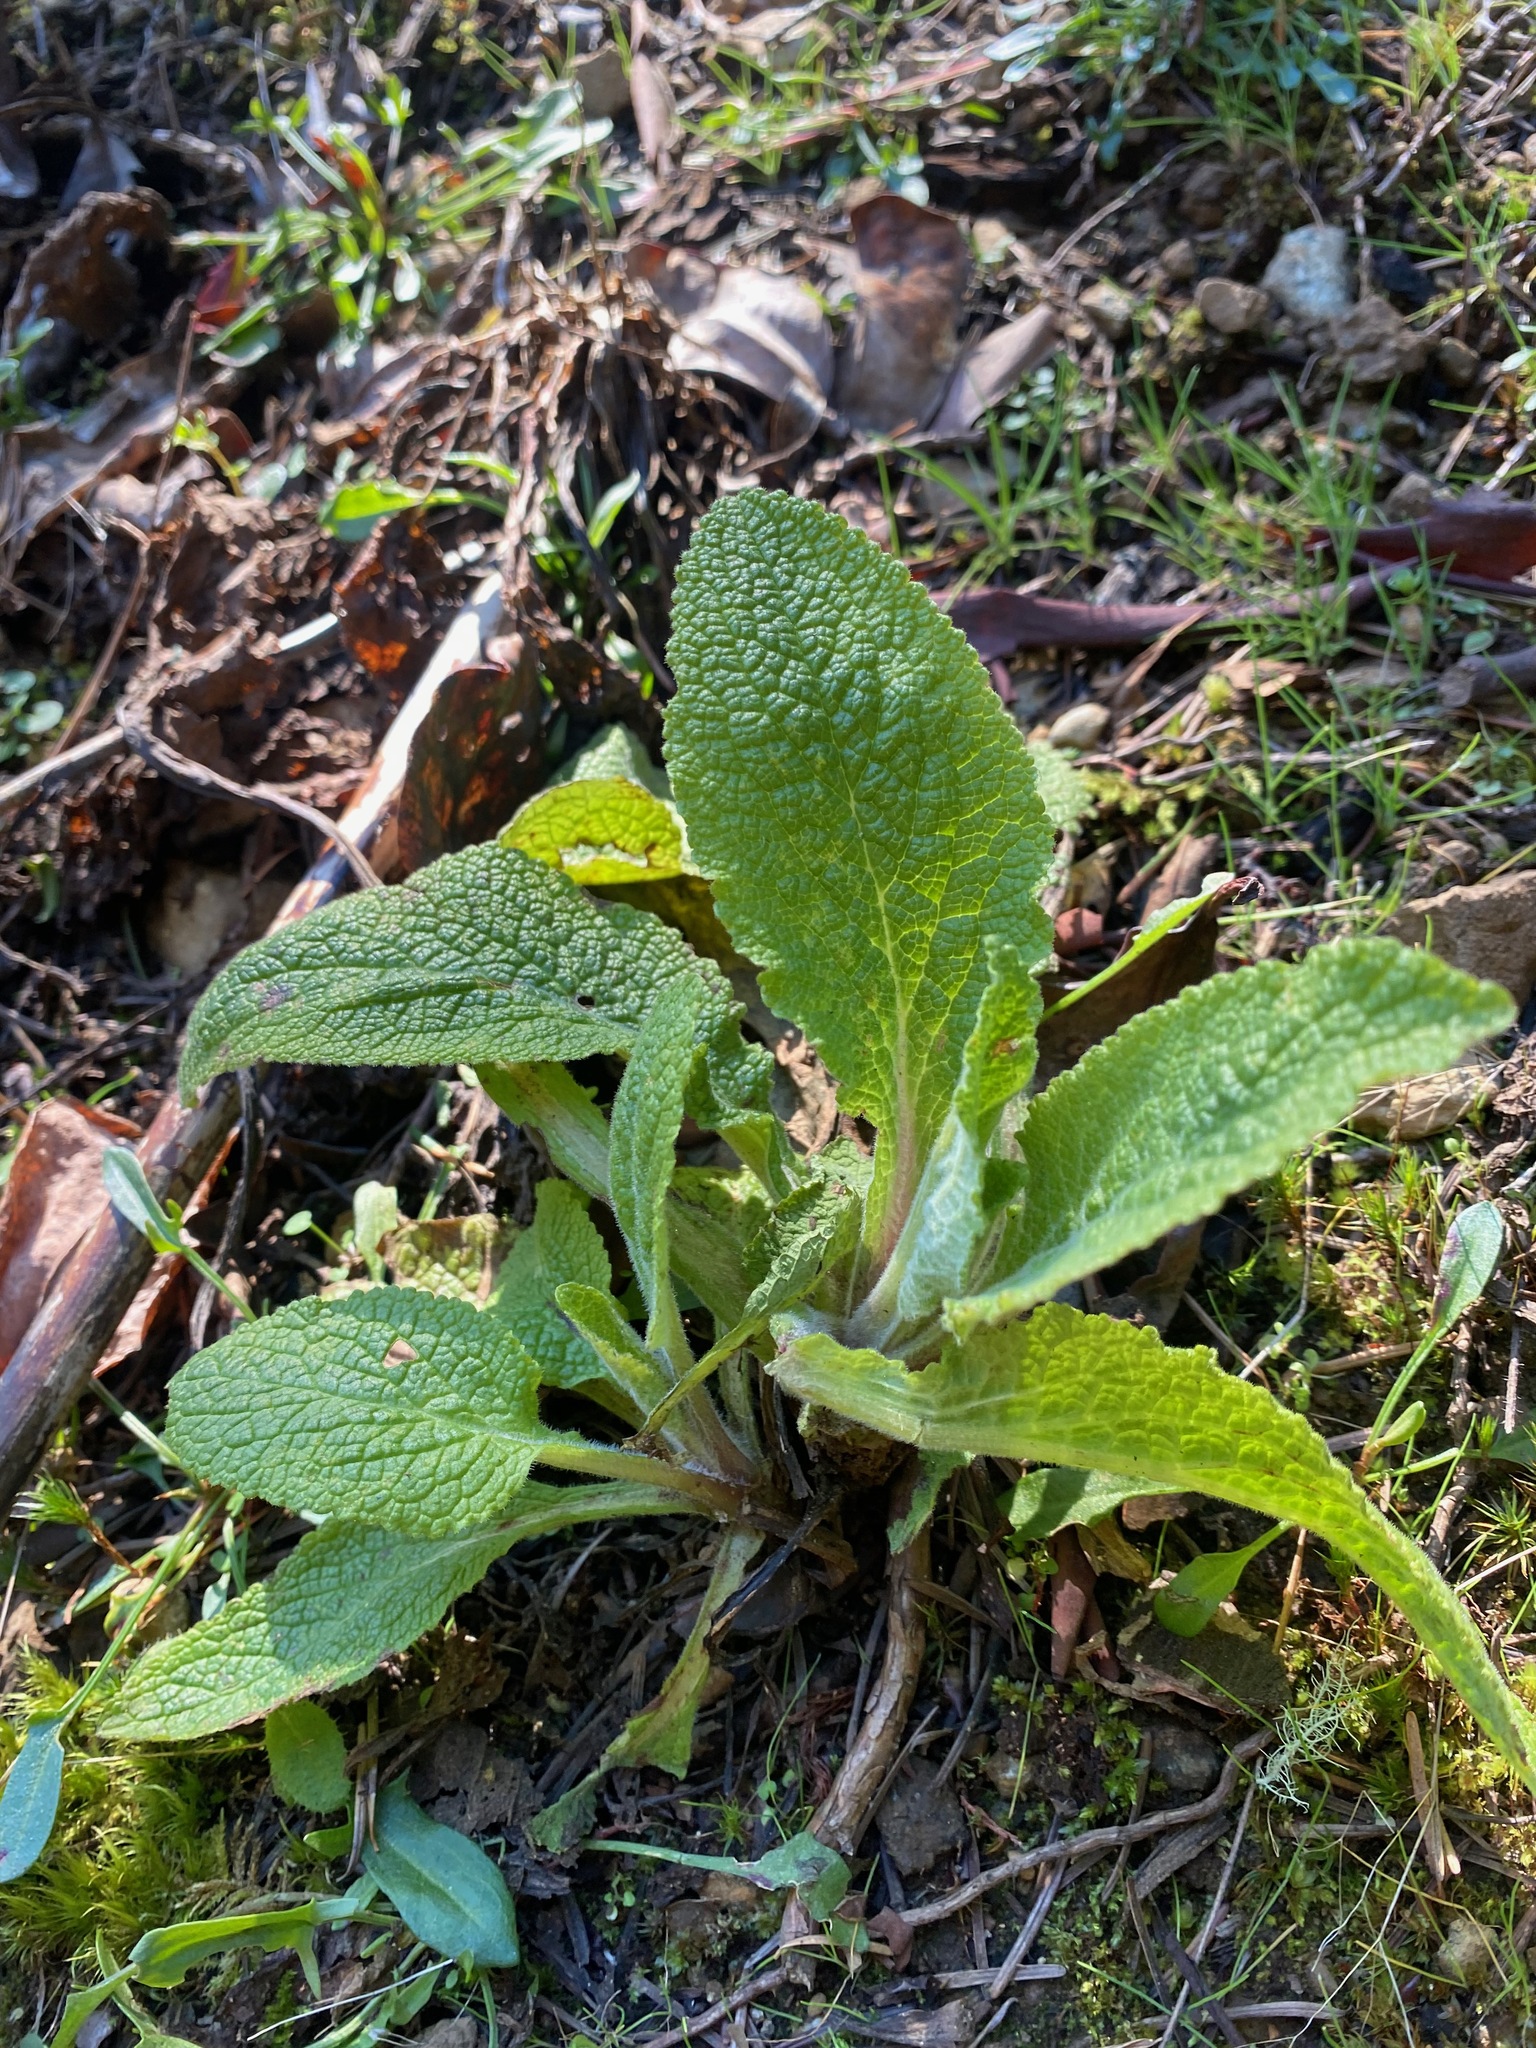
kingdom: Plantae
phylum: Tracheophyta
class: Magnoliopsida
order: Lamiales
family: Plantaginaceae
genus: Digitalis
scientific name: Digitalis purpurea
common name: Foxglove
